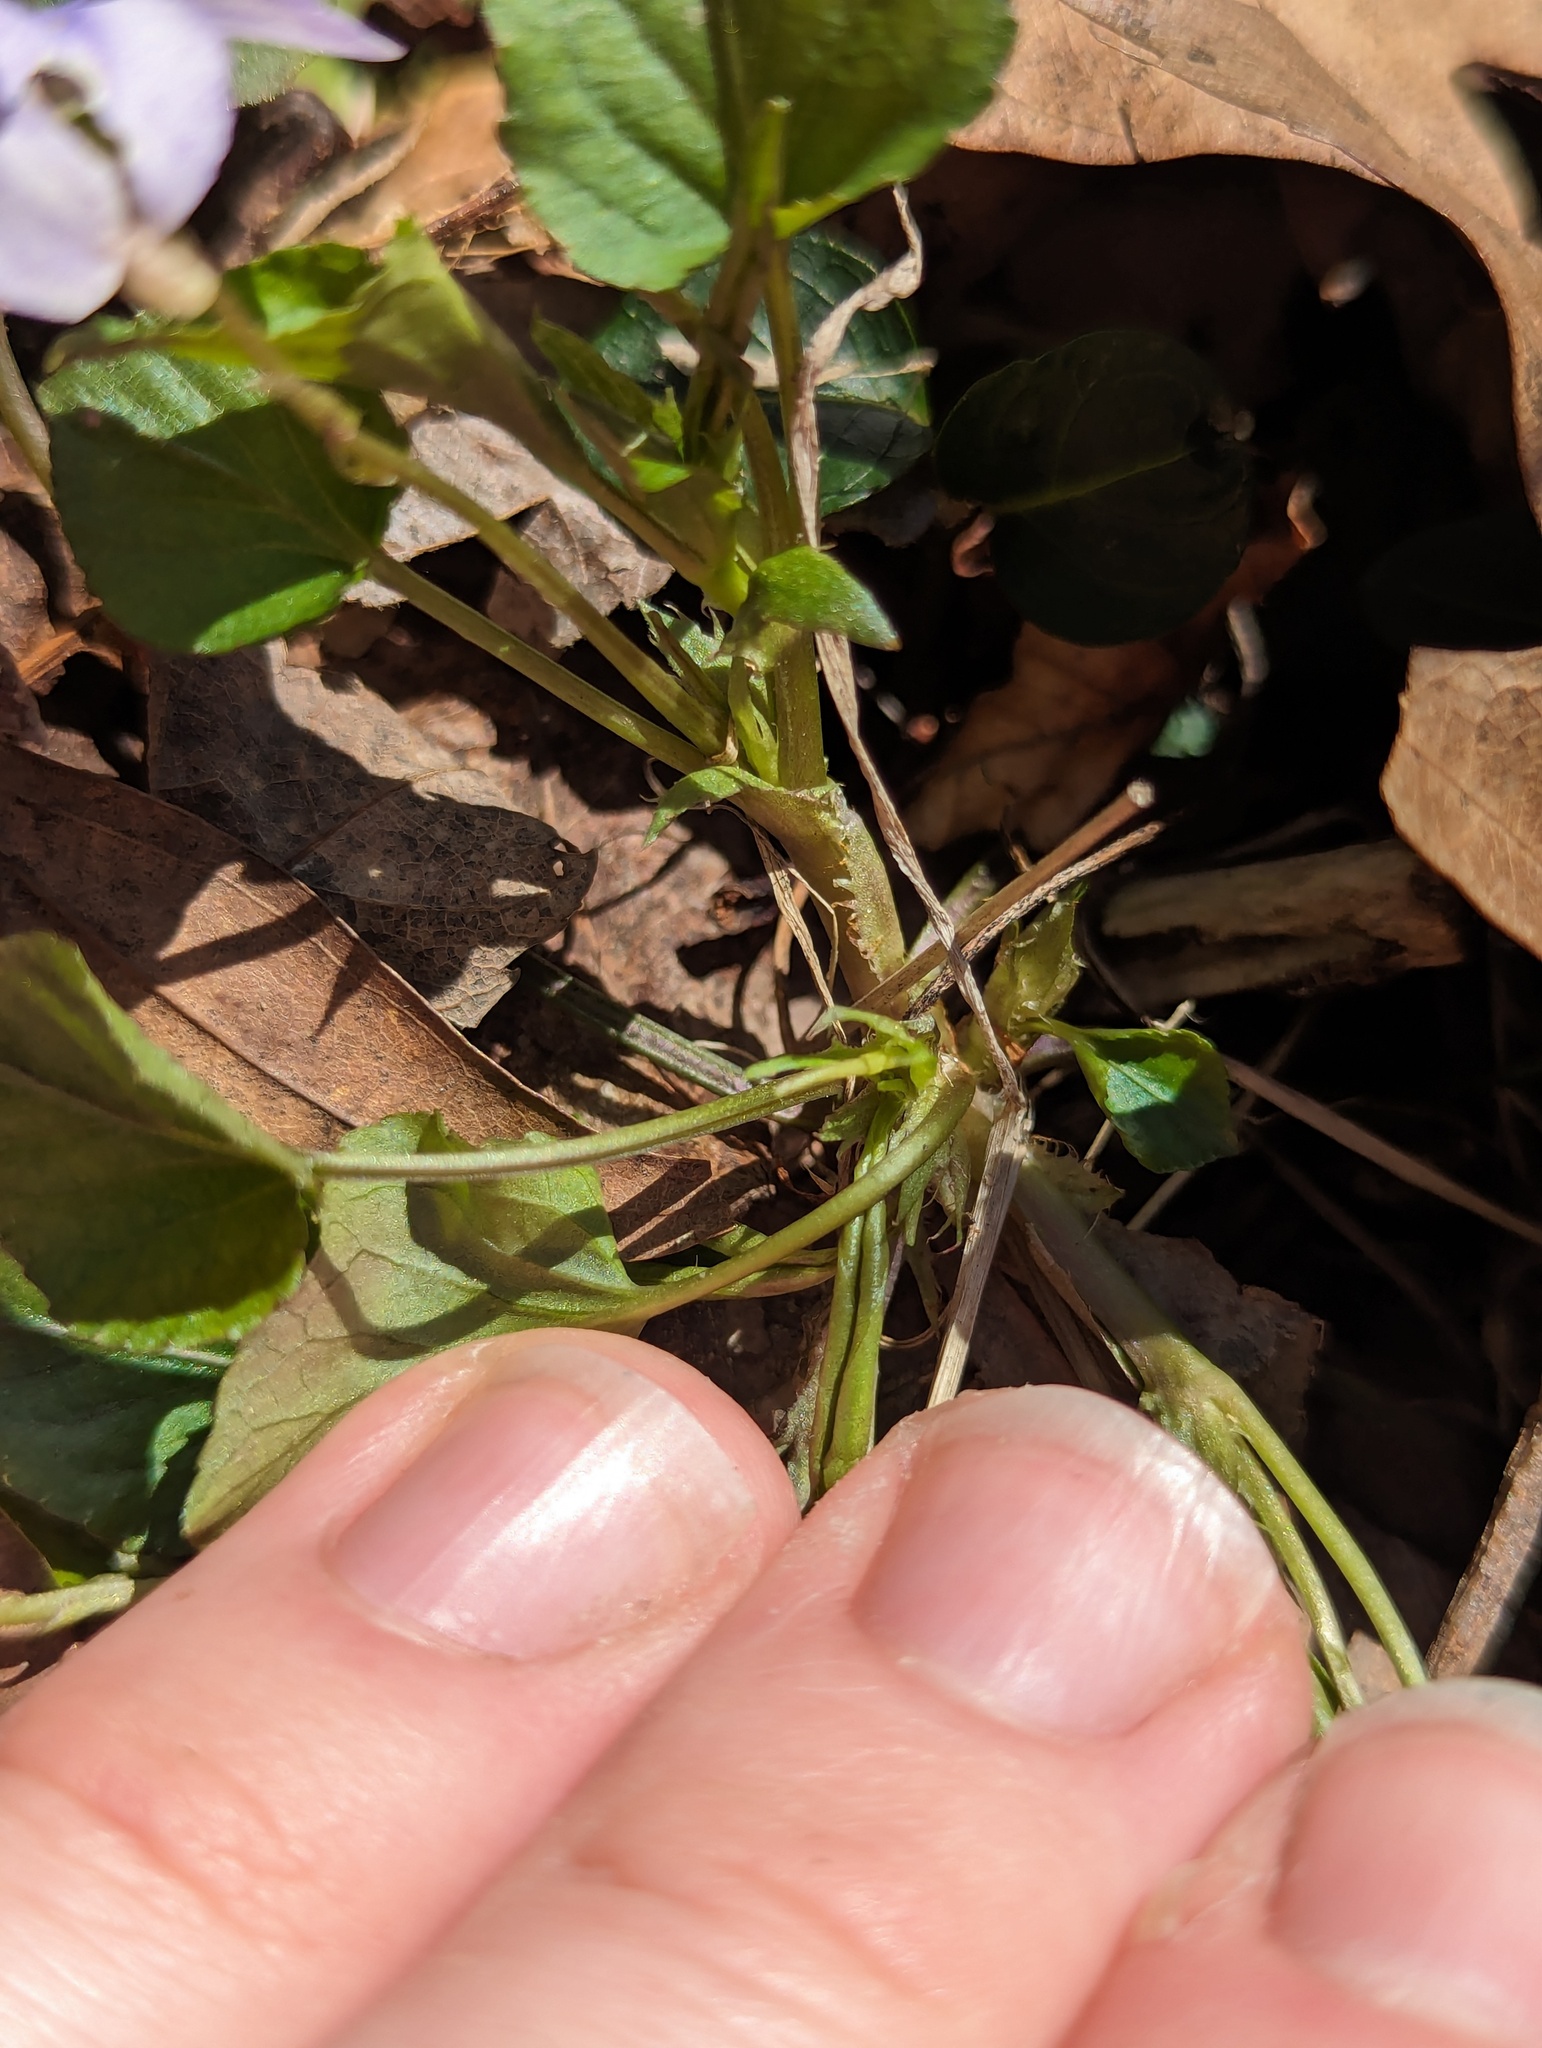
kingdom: Plantae
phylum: Tracheophyta
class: Magnoliopsida
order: Malpighiales
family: Violaceae
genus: Viola
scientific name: Viola rostrata
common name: Long-spur violet
